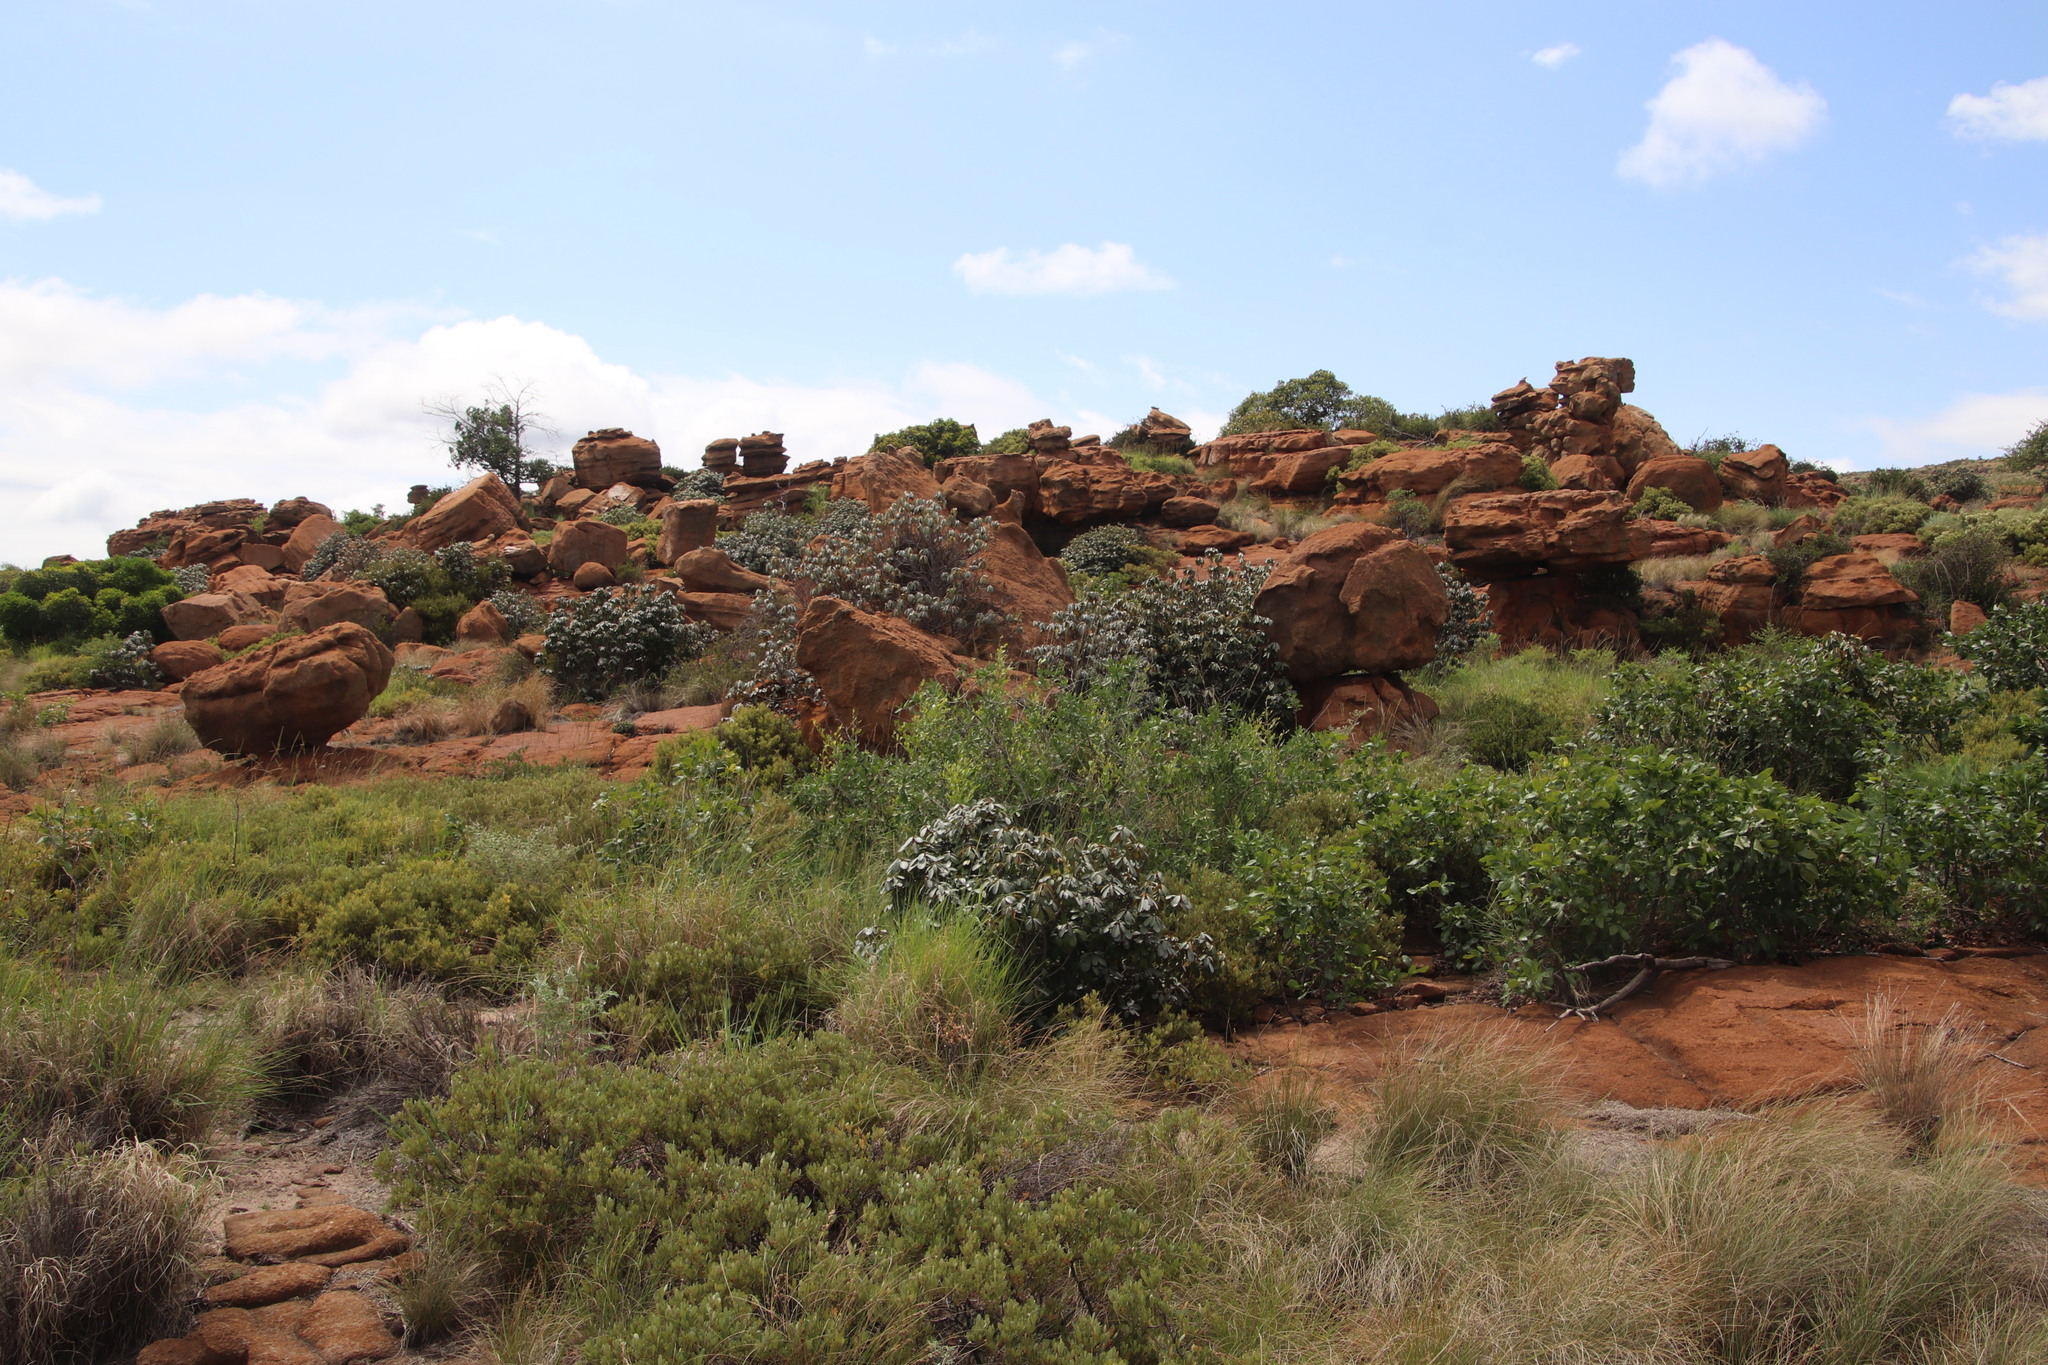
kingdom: Plantae
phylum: Tracheophyta
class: Magnoliopsida
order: Ericales
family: Sapotaceae
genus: Englerophytum
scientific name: Englerophytum magalismontanum
